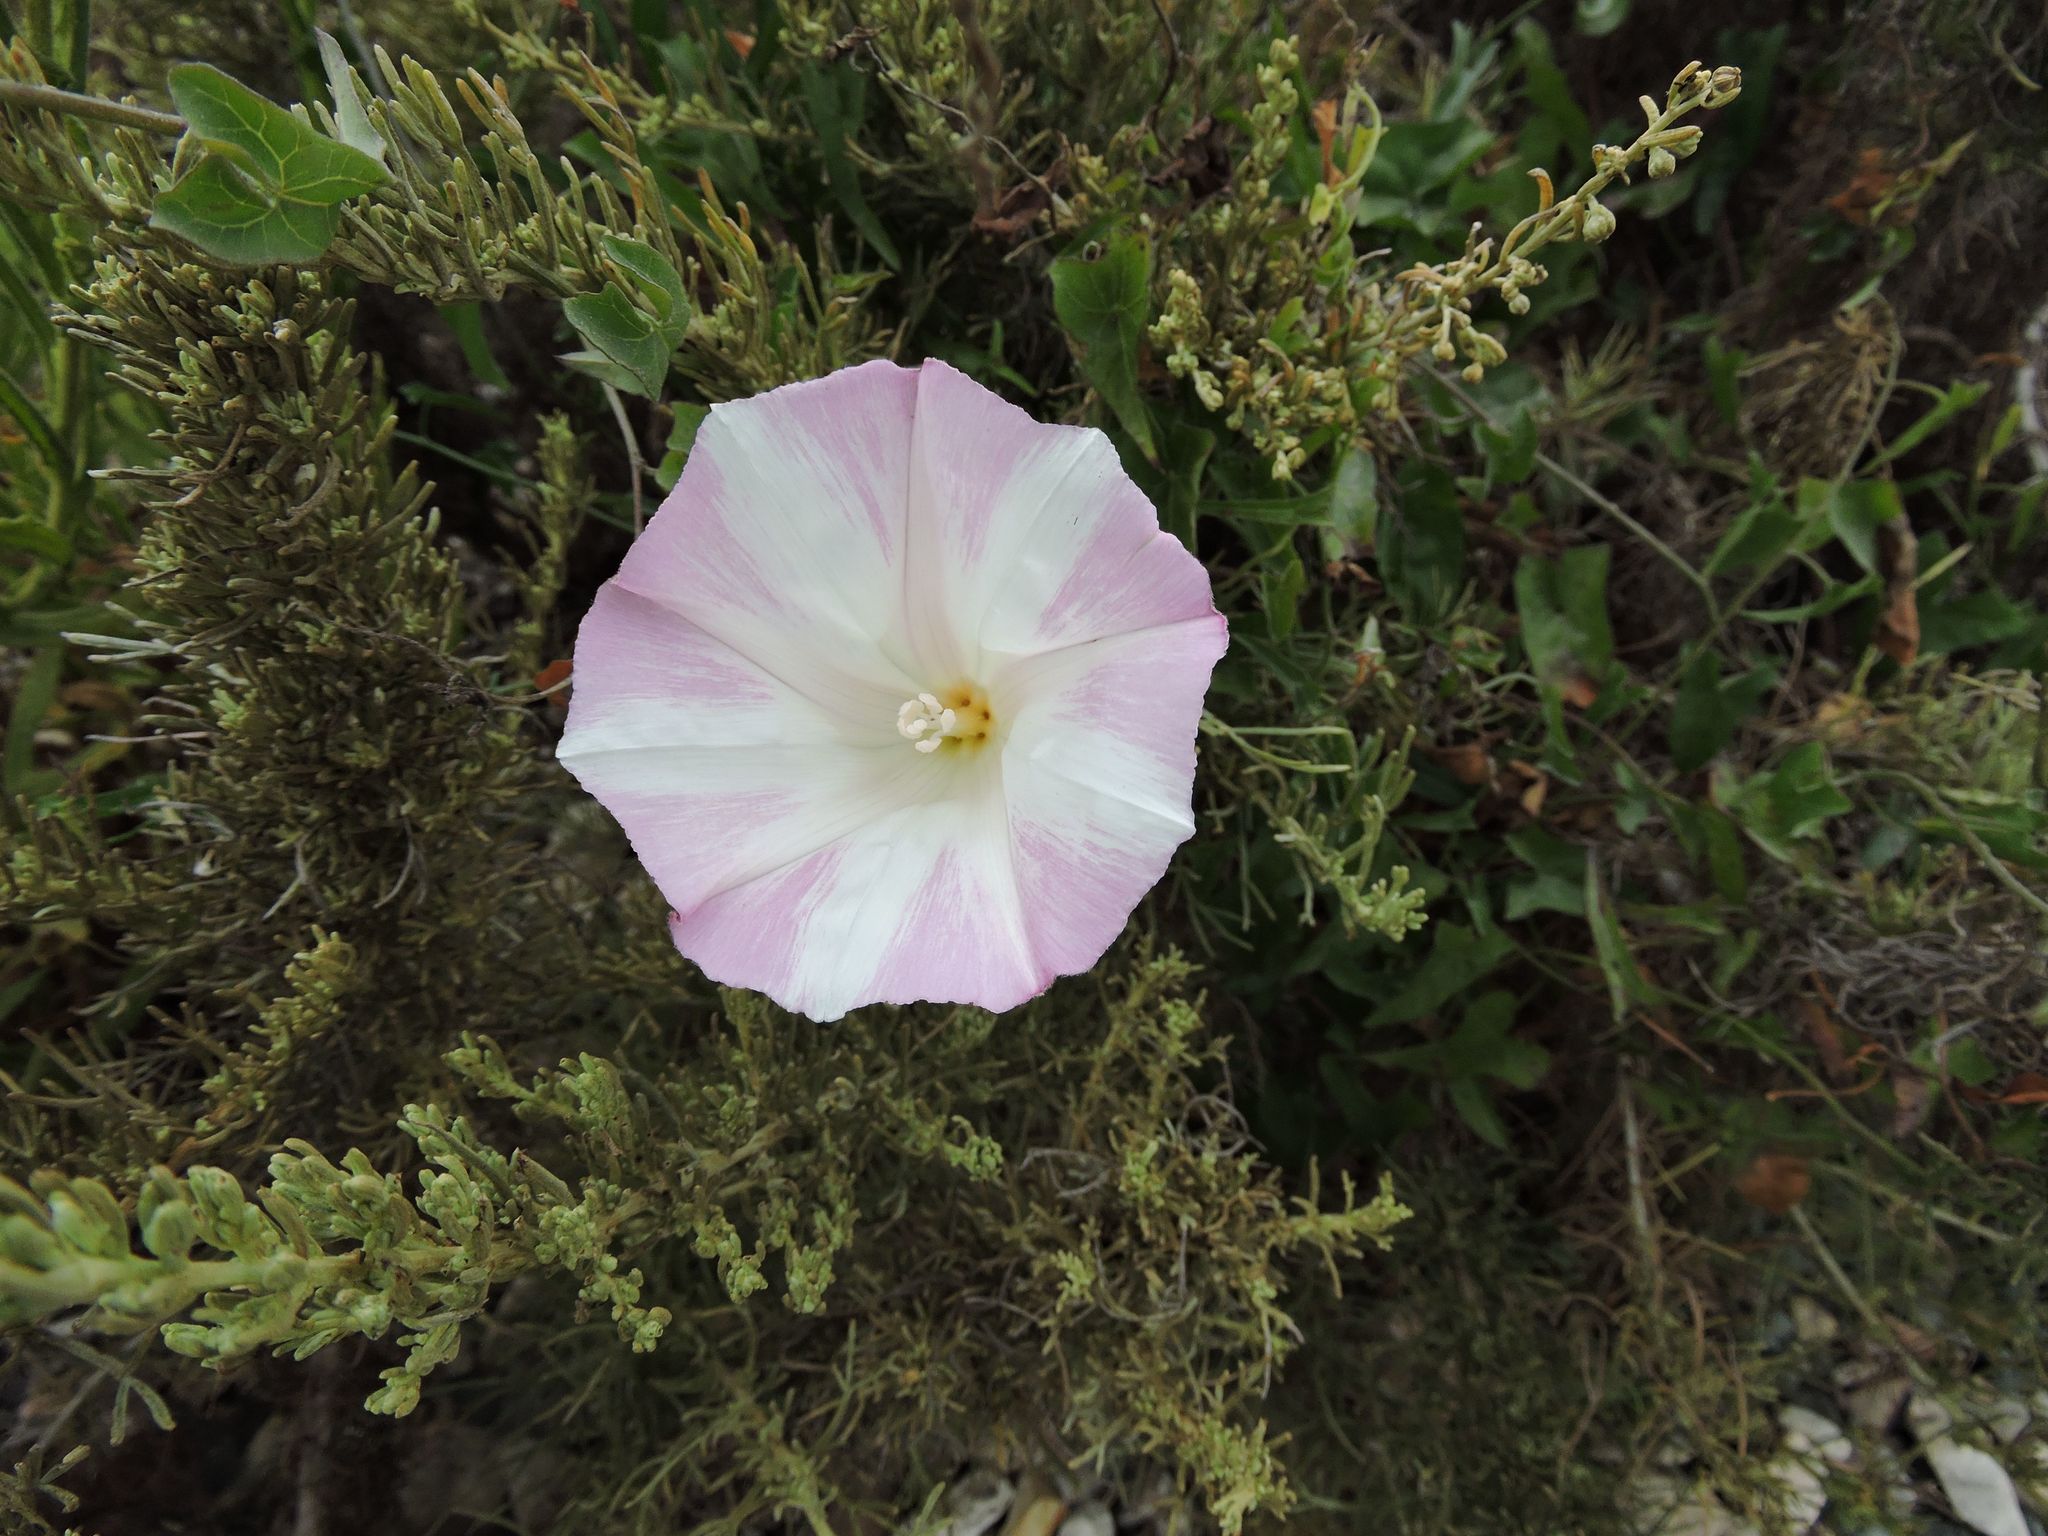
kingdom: Plantae
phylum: Tracheophyta
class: Magnoliopsida
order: Solanales
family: Convolvulaceae
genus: Calystegia
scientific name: Calystegia macrostegia
